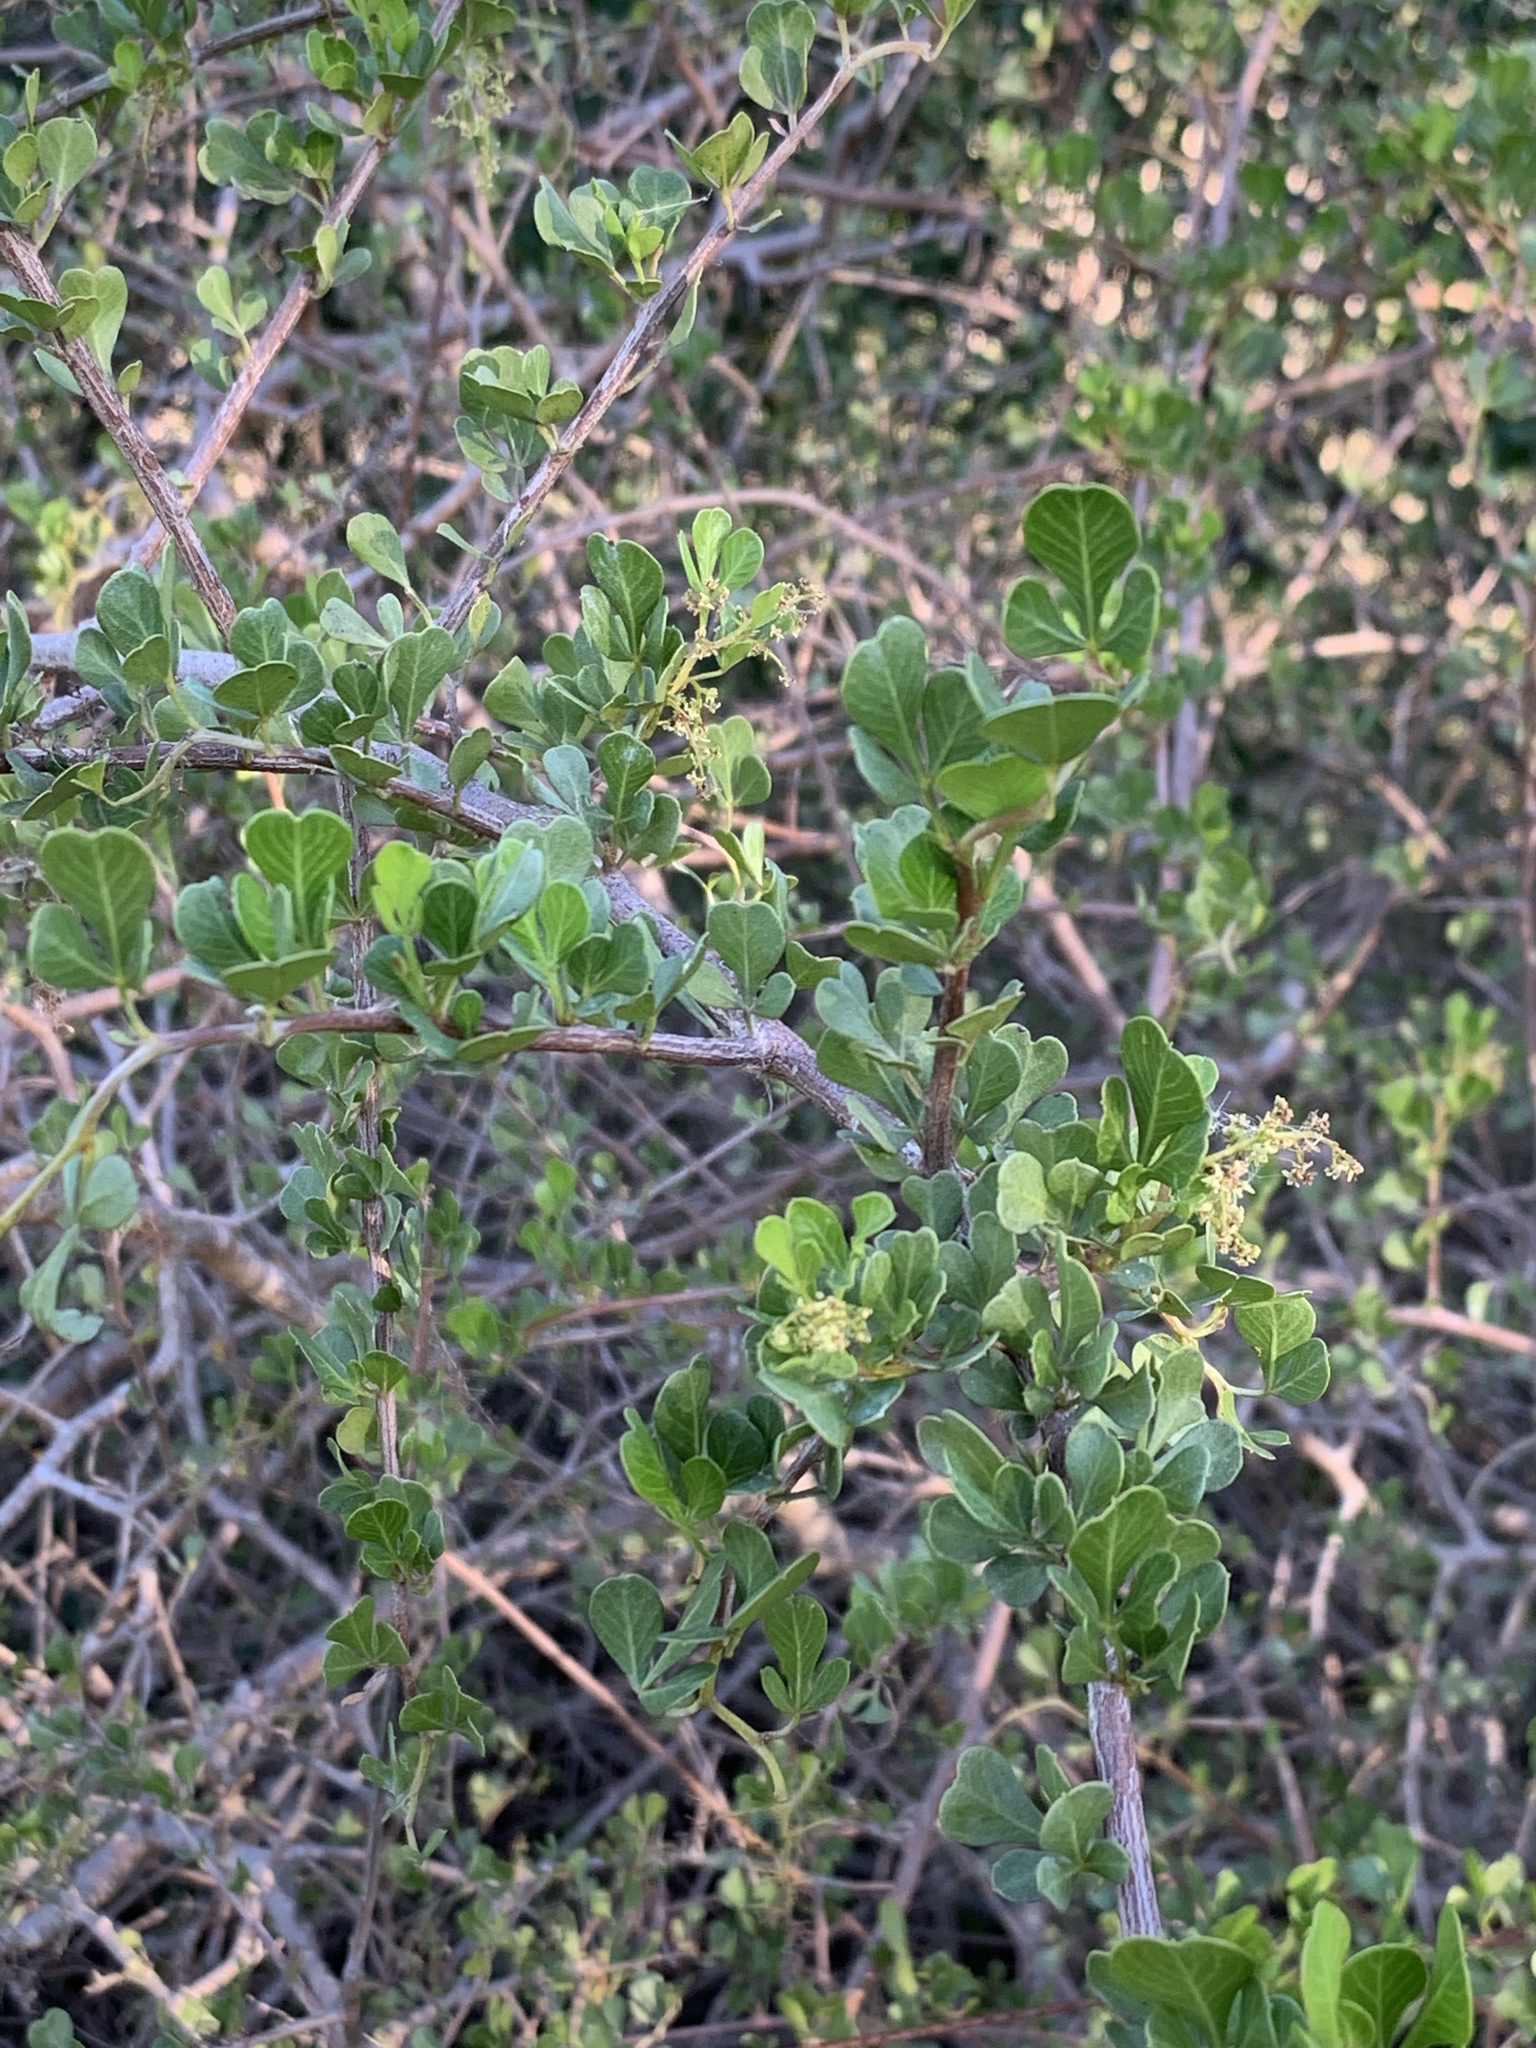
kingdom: Plantae
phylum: Tracheophyta
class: Magnoliopsida
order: Sapindales
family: Anacardiaceae
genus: Searsia
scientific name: Searsia glauca
